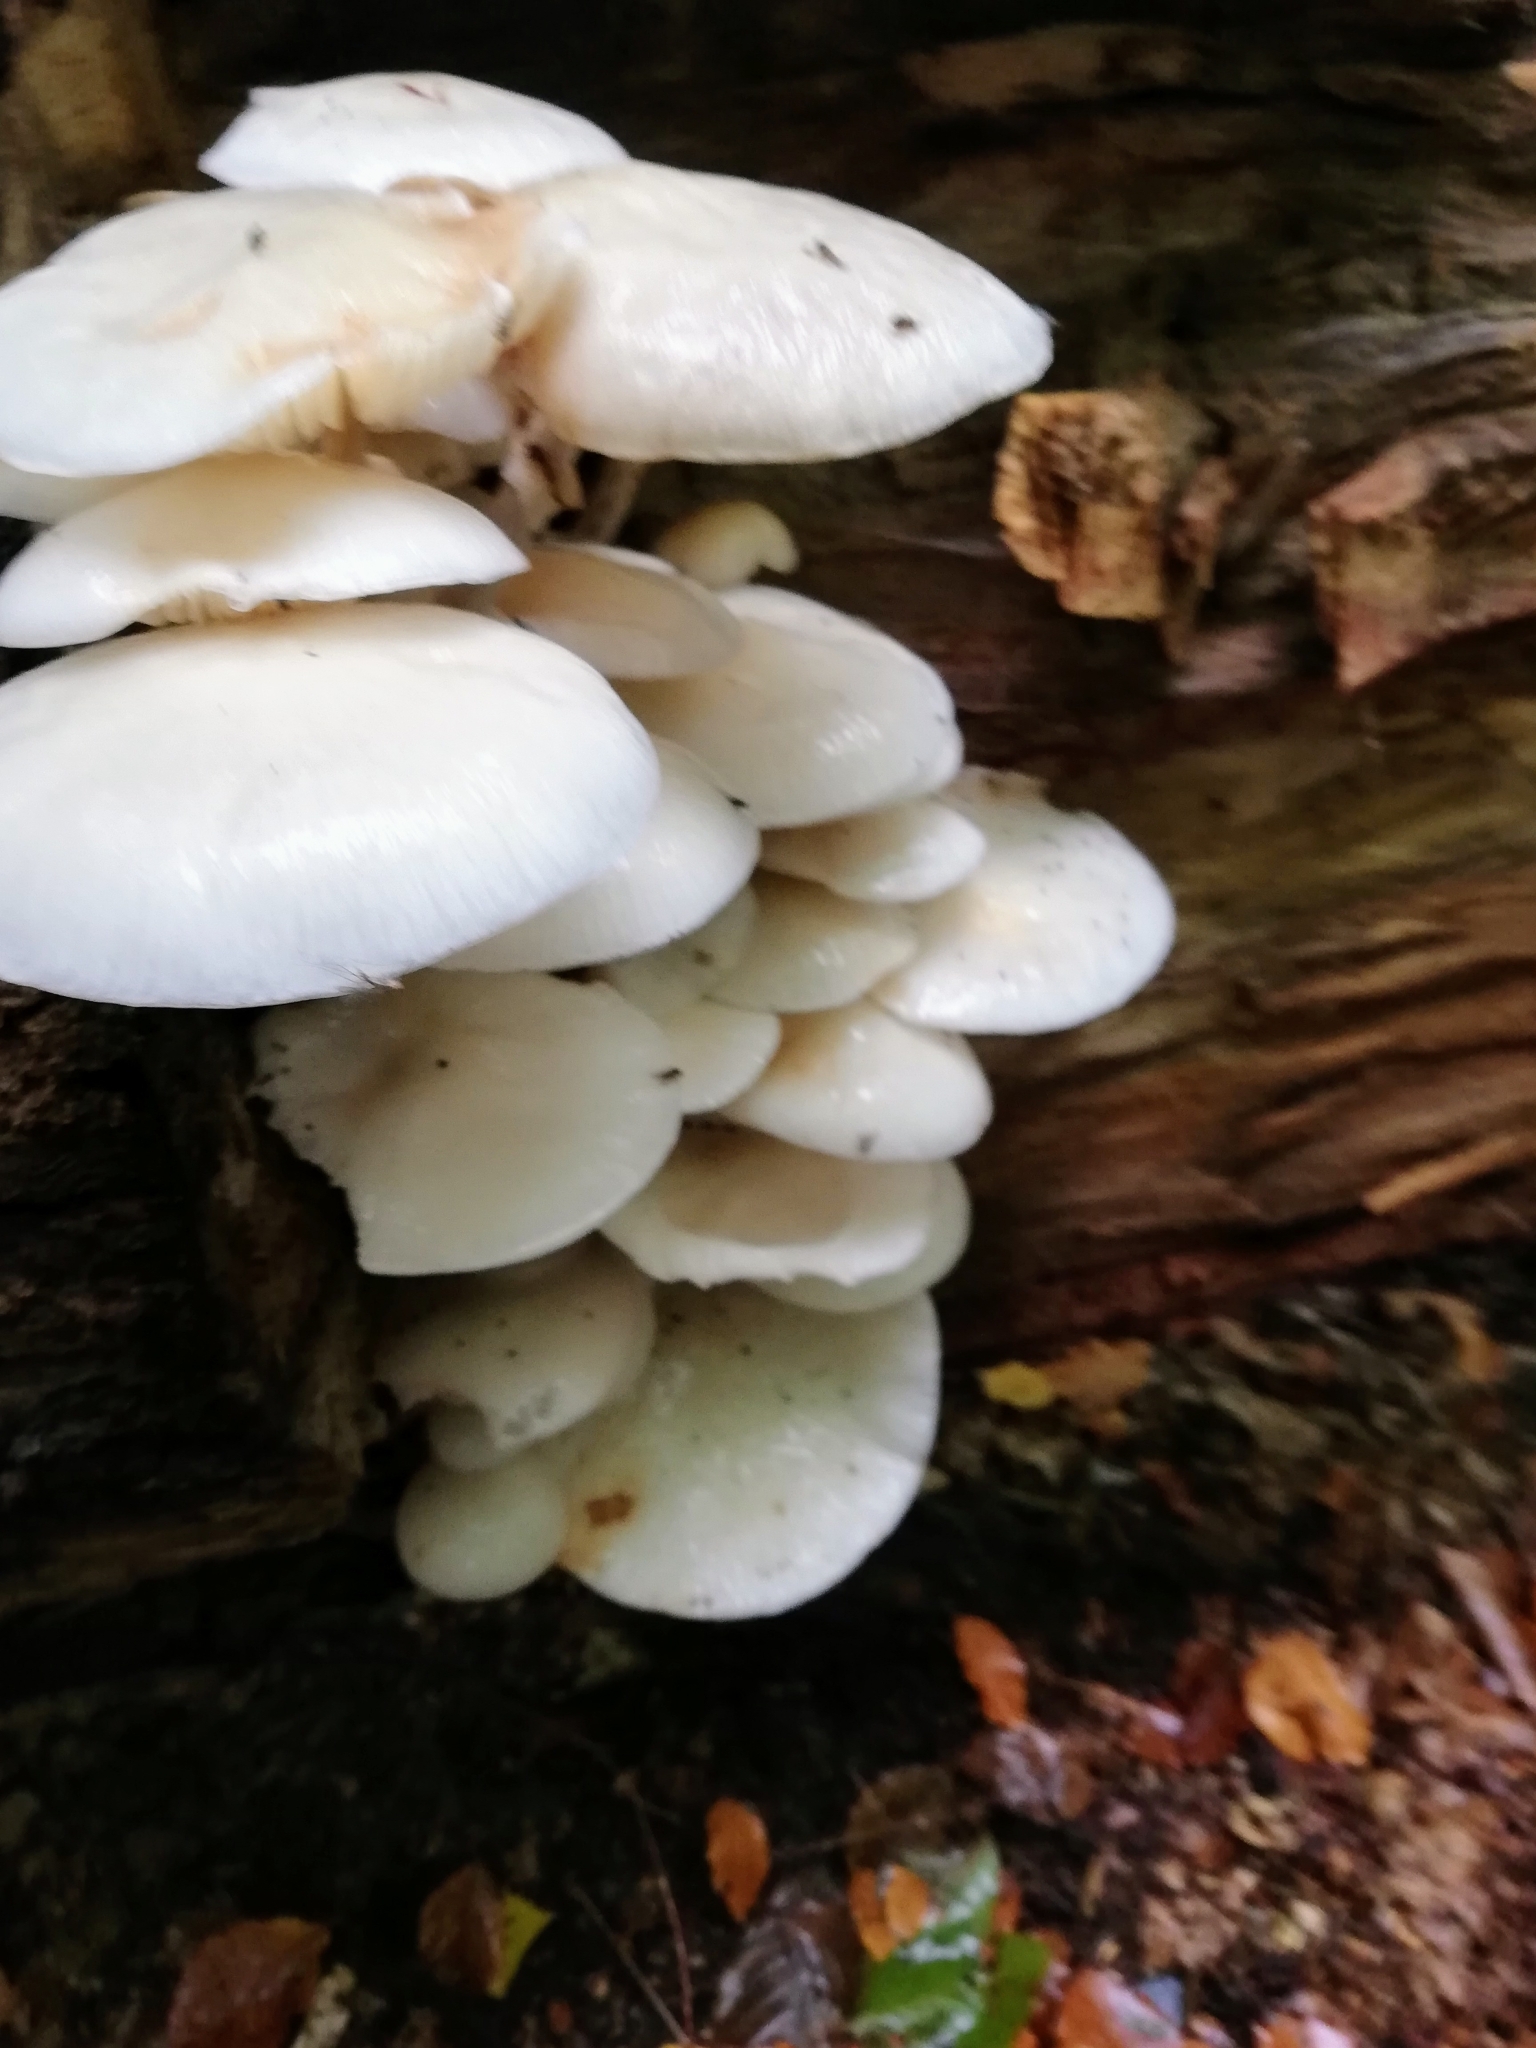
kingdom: Fungi
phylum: Basidiomycota
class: Agaricomycetes
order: Agaricales
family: Physalacriaceae
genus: Mucidula
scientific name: Mucidula mucida
